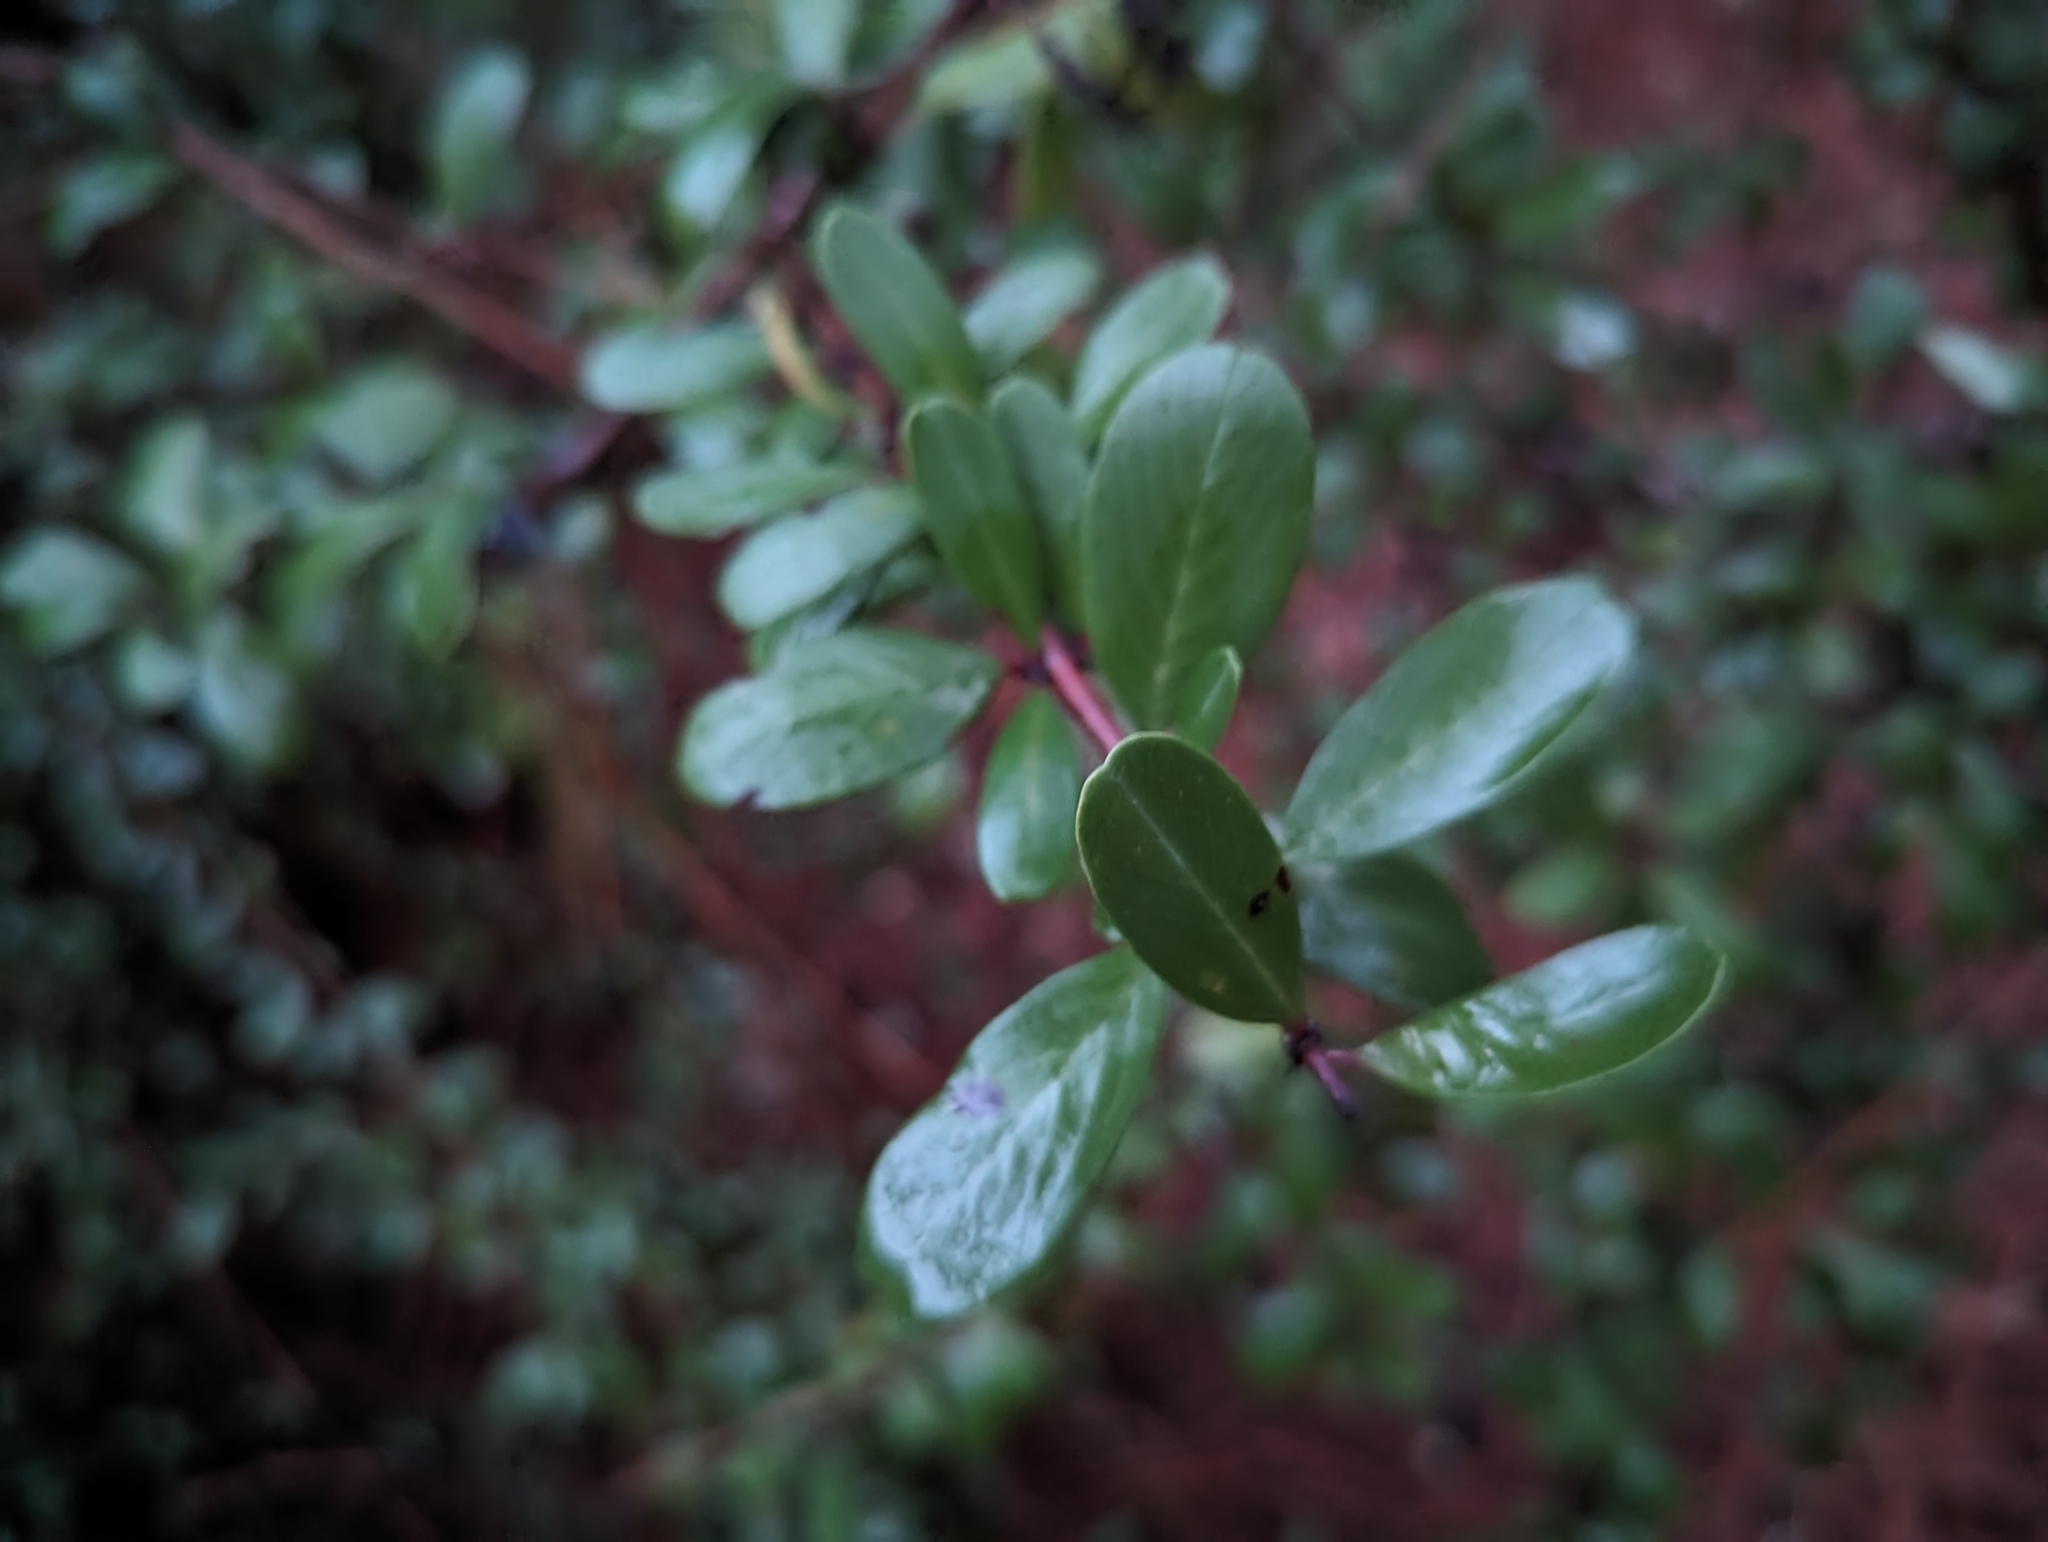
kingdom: Plantae
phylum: Tracheophyta
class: Magnoliopsida
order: Rosales
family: Rhamnaceae
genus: Ceanothus
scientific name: Ceanothus cuneatus
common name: Cuneate ceanothus
